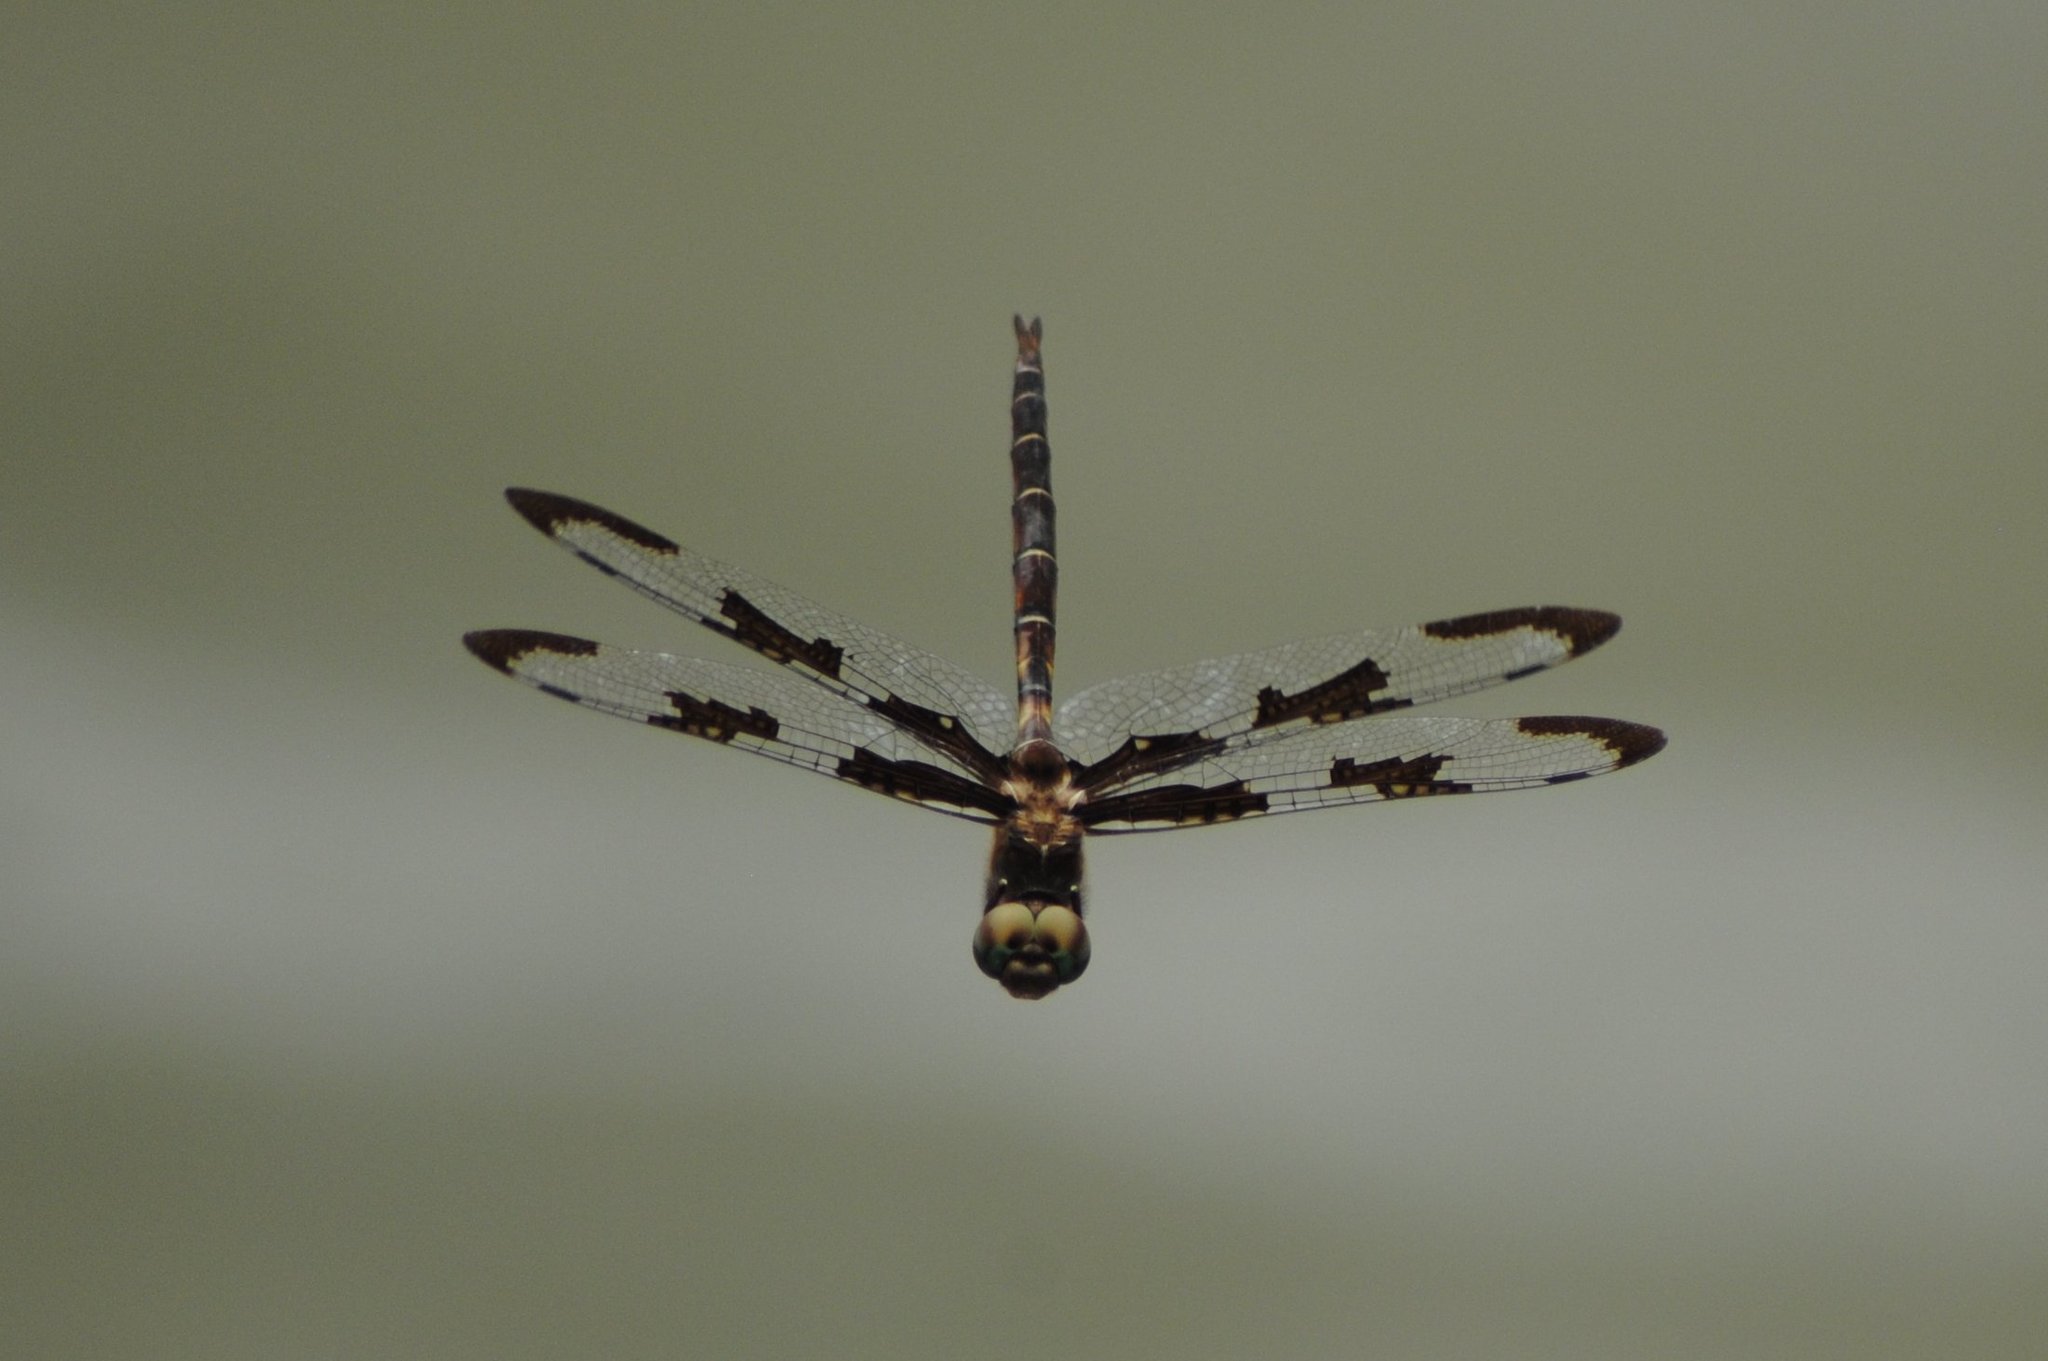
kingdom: Animalia
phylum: Arthropoda
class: Insecta
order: Odonata
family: Corduliidae
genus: Epitheca
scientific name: Epitheca princeps
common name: Prince baskettail
